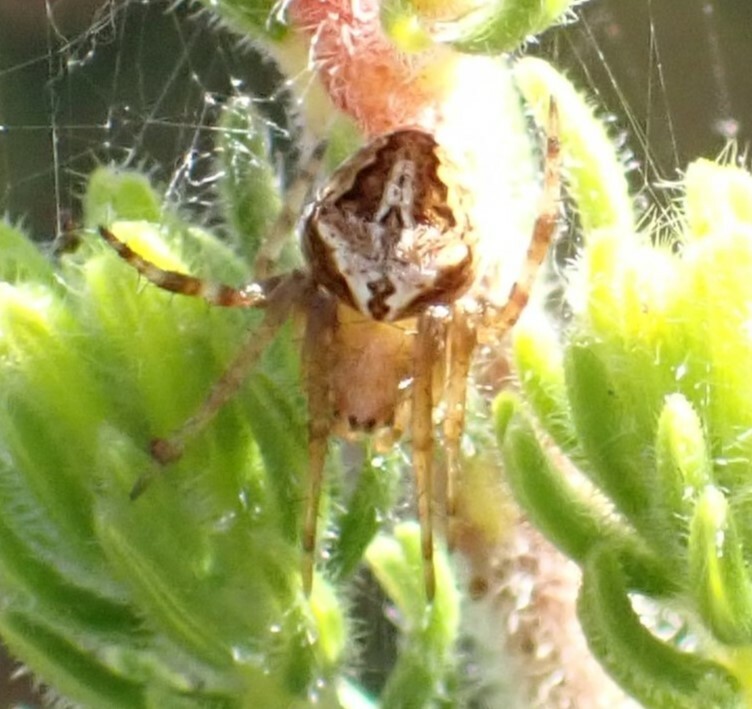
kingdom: Animalia
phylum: Arthropoda
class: Arachnida
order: Araneae
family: Araneidae
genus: Neoscona
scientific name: Neoscona subfusca
